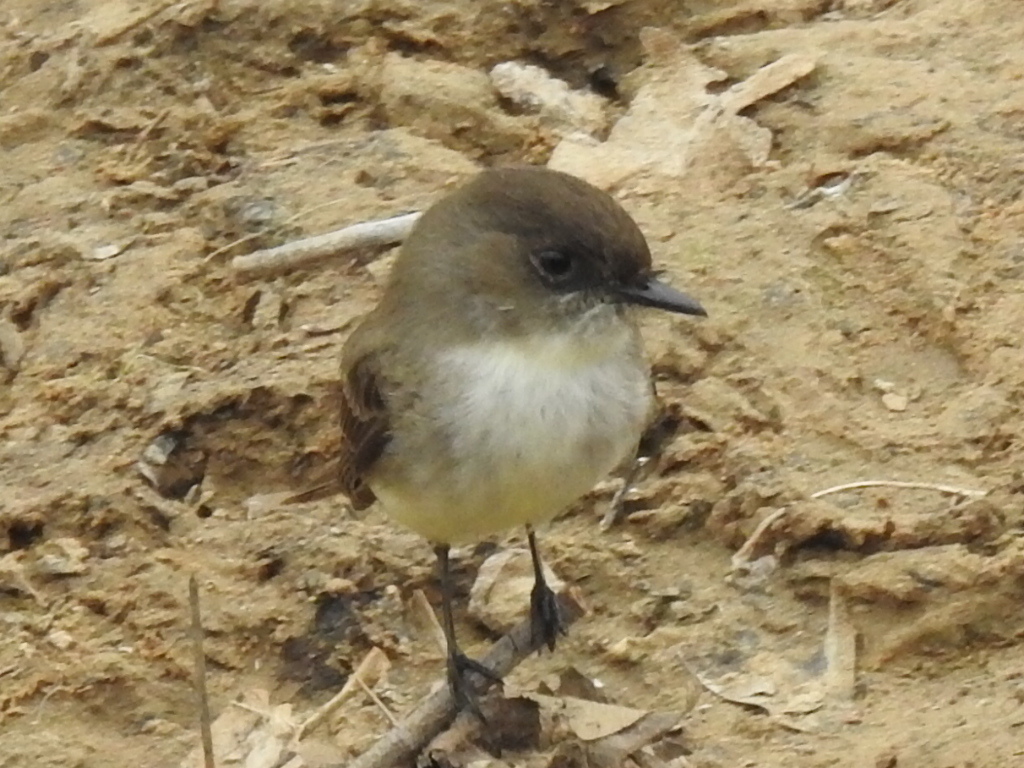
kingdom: Animalia
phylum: Chordata
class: Aves
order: Passeriformes
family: Tyrannidae
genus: Sayornis
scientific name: Sayornis phoebe
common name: Eastern phoebe
